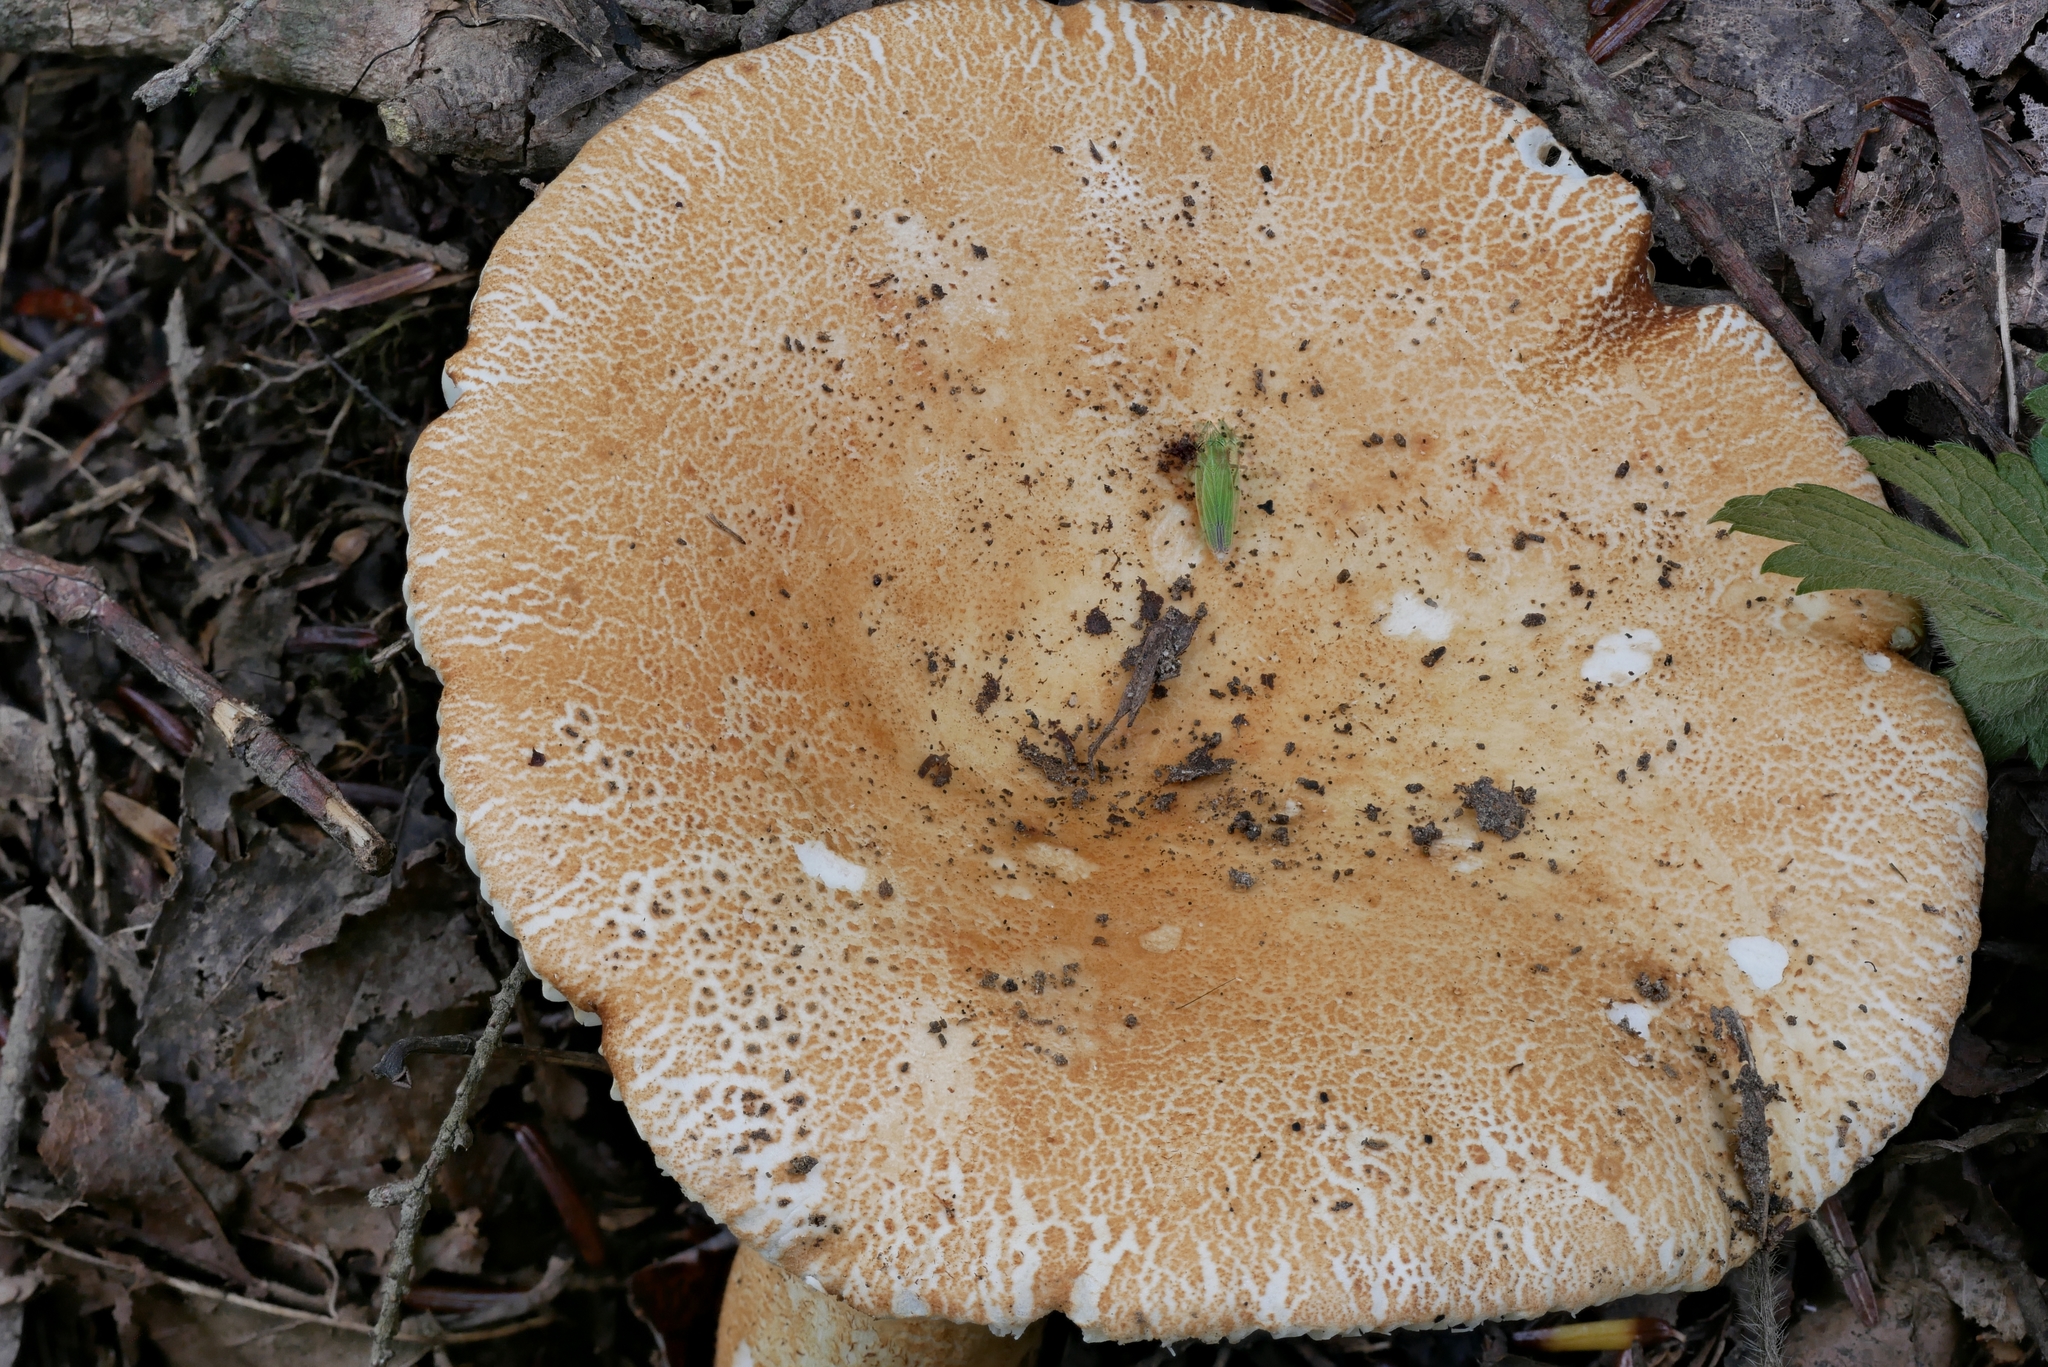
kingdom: Fungi
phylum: Basidiomycota
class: Agaricomycetes
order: Russulales
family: Russulaceae
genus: Russula
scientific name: Russula ballouii
